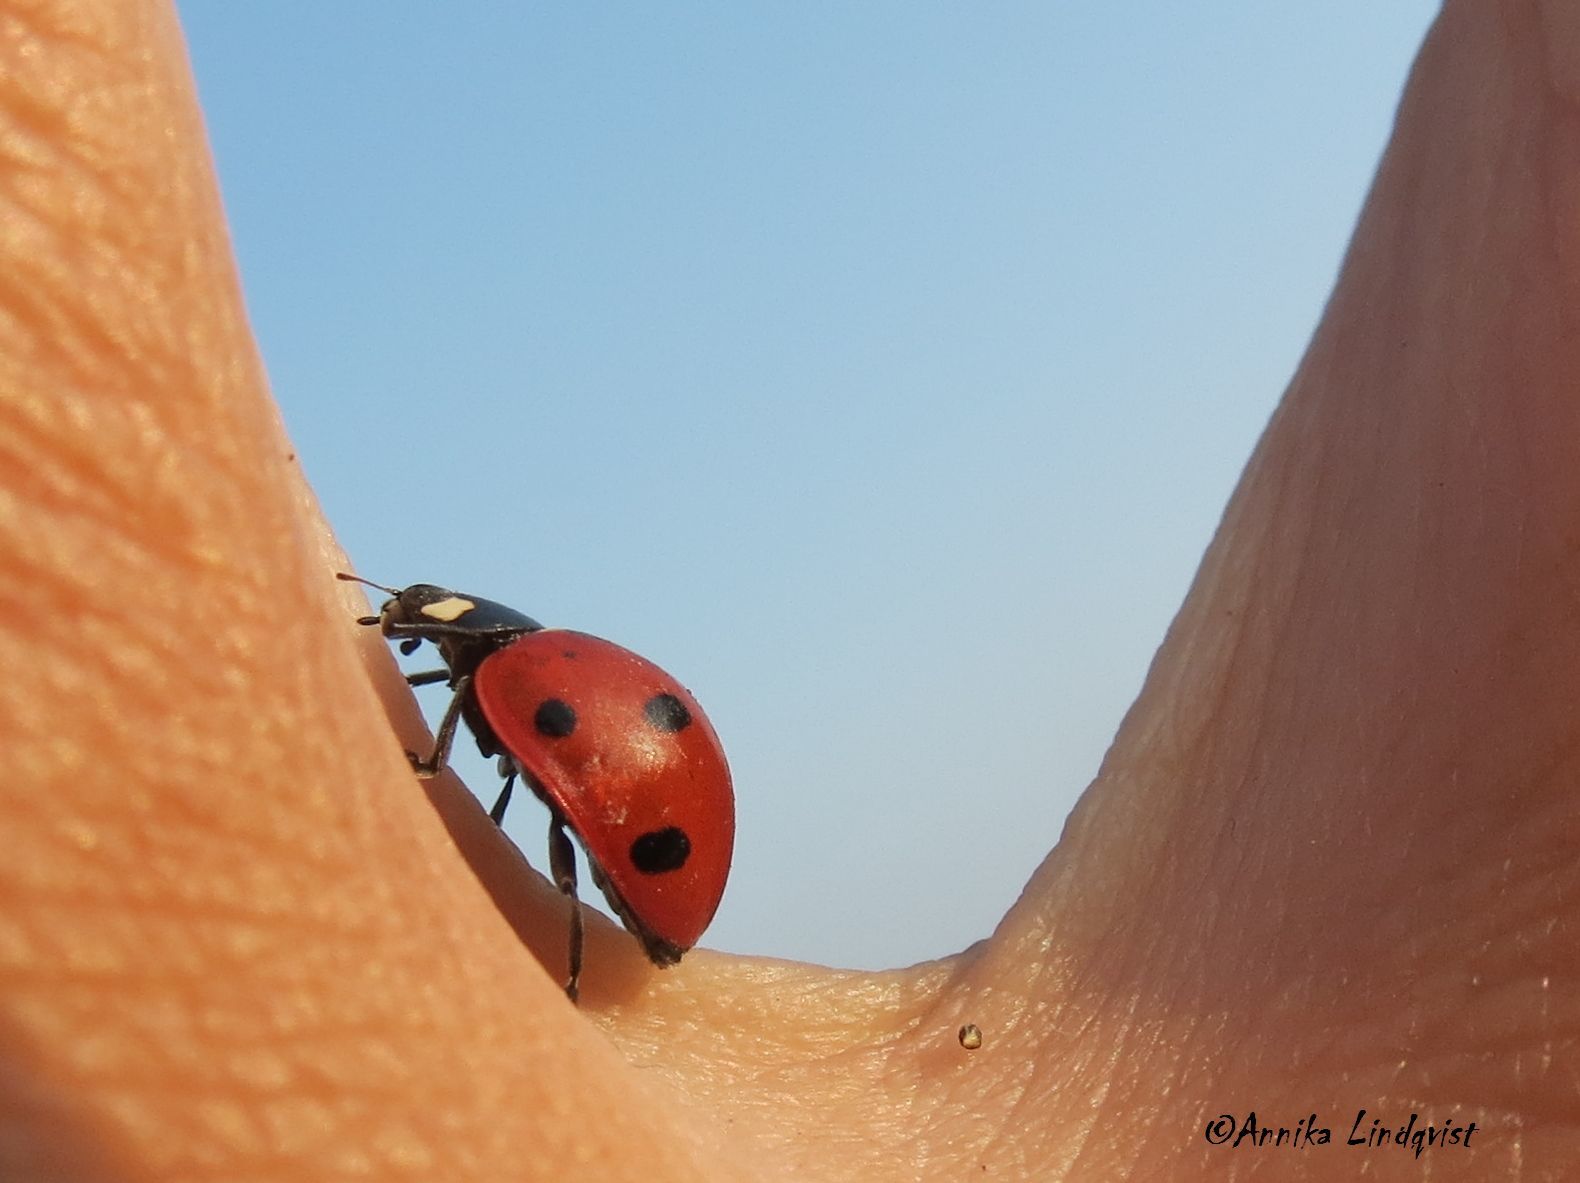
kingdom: Animalia
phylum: Arthropoda
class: Insecta
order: Coleoptera
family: Coccinellidae
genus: Coccinella
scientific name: Coccinella septempunctata
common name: Sevenspotted lady beetle
